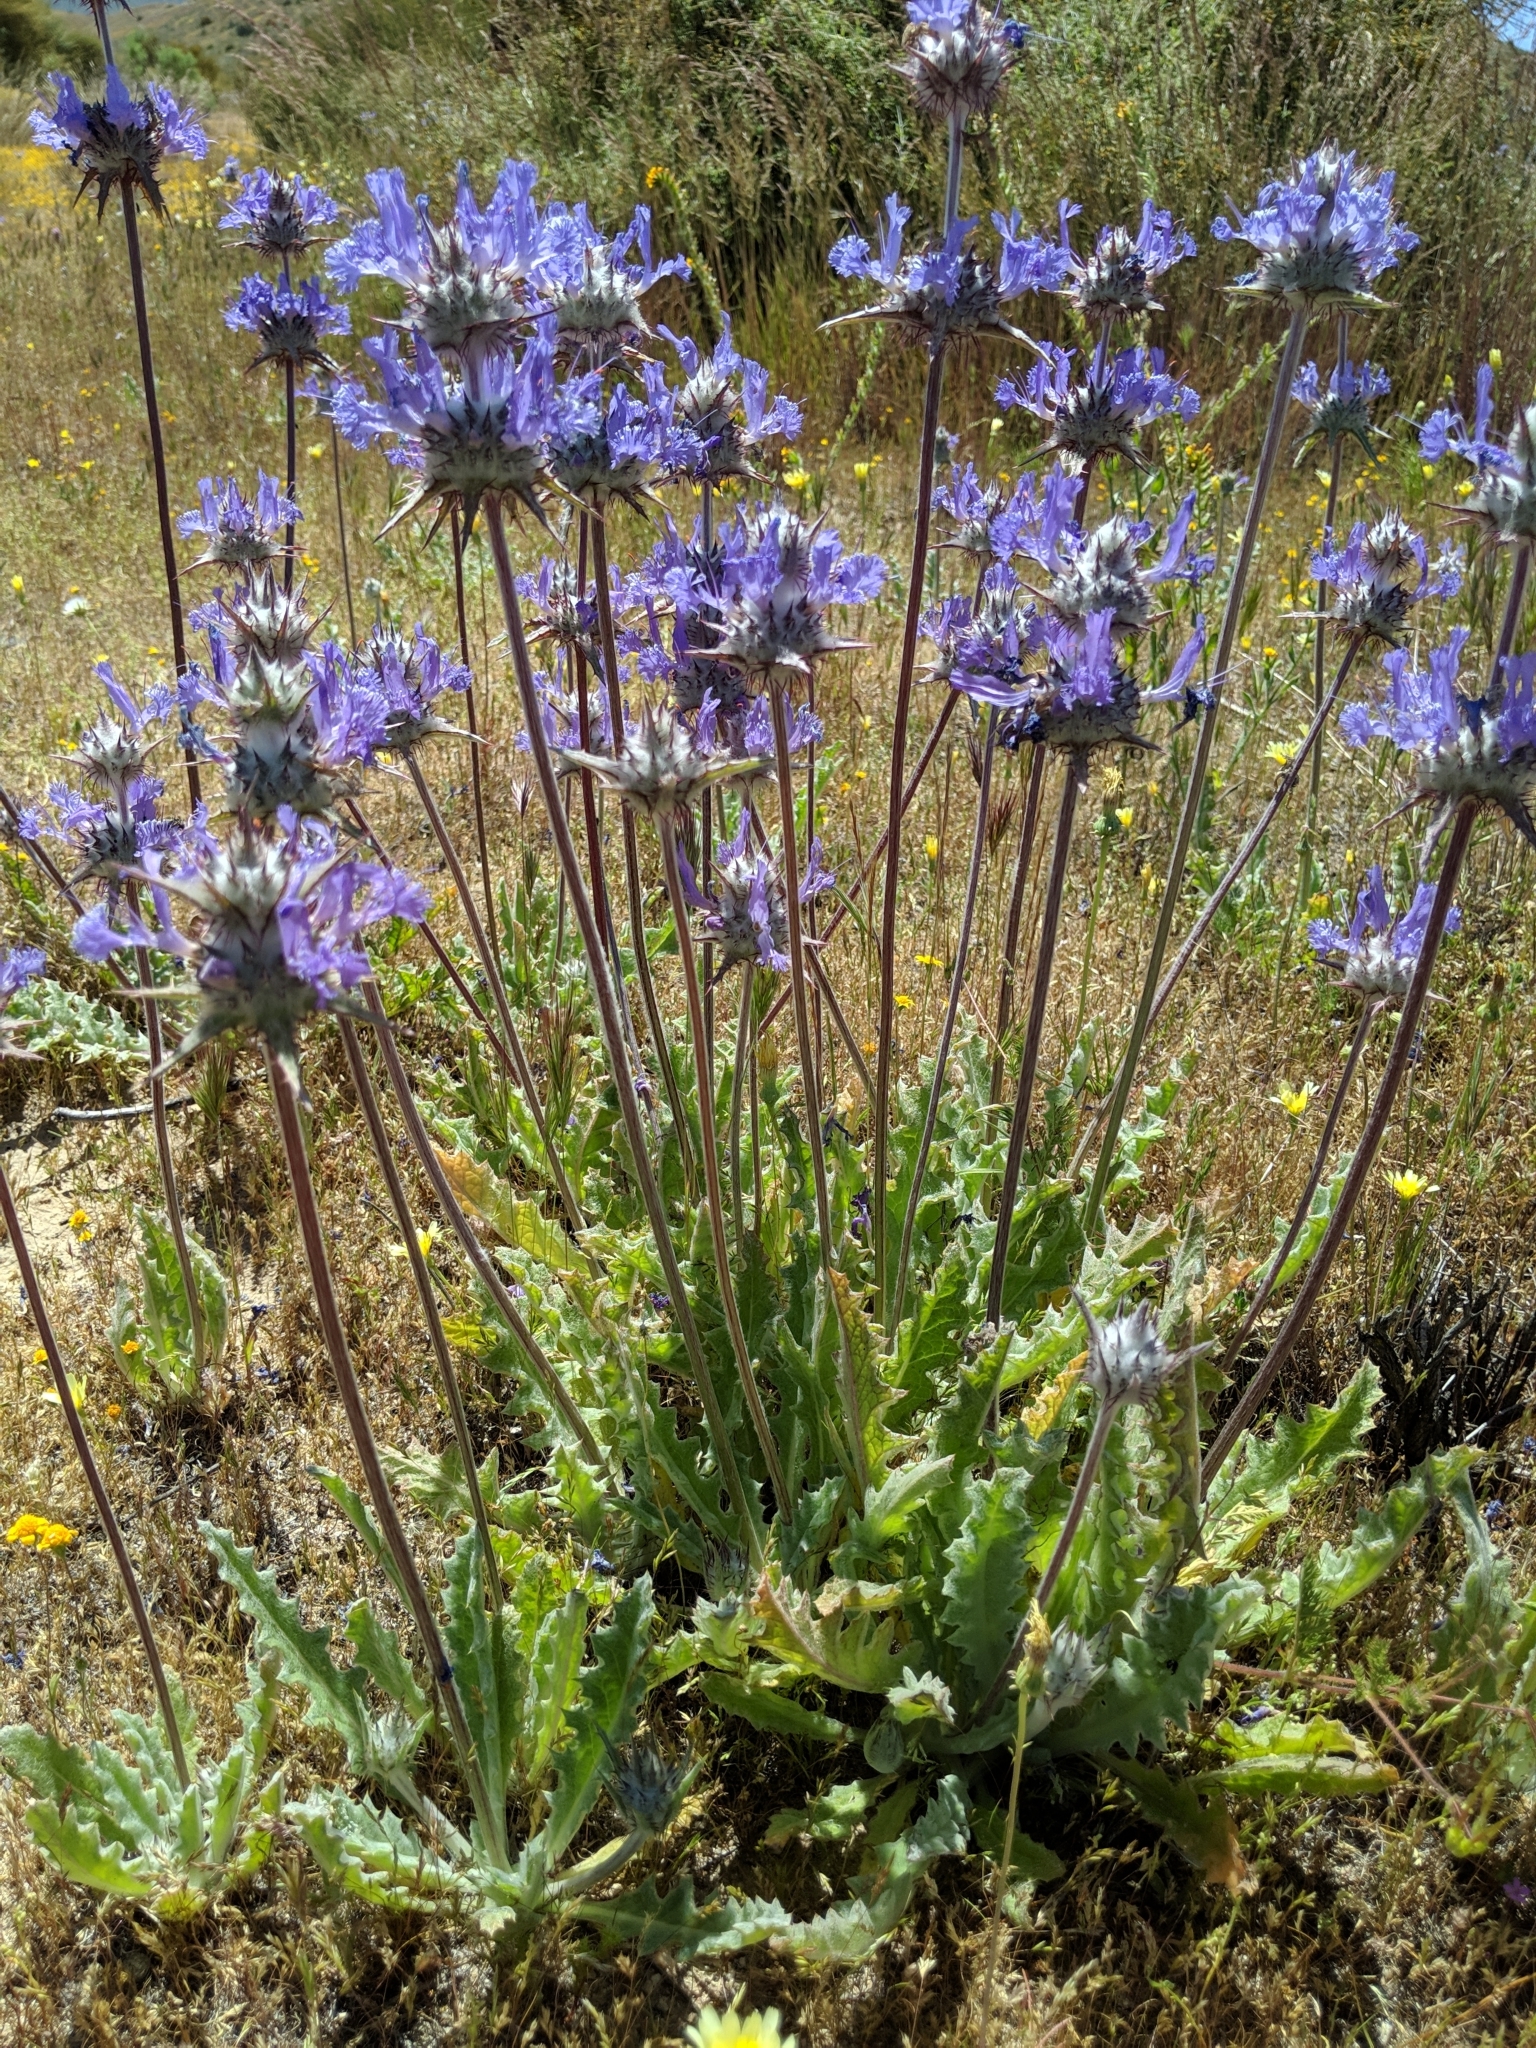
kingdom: Plantae
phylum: Tracheophyta
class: Magnoliopsida
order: Lamiales
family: Lamiaceae
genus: Salvia
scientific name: Salvia carduacea
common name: Thistle sage
